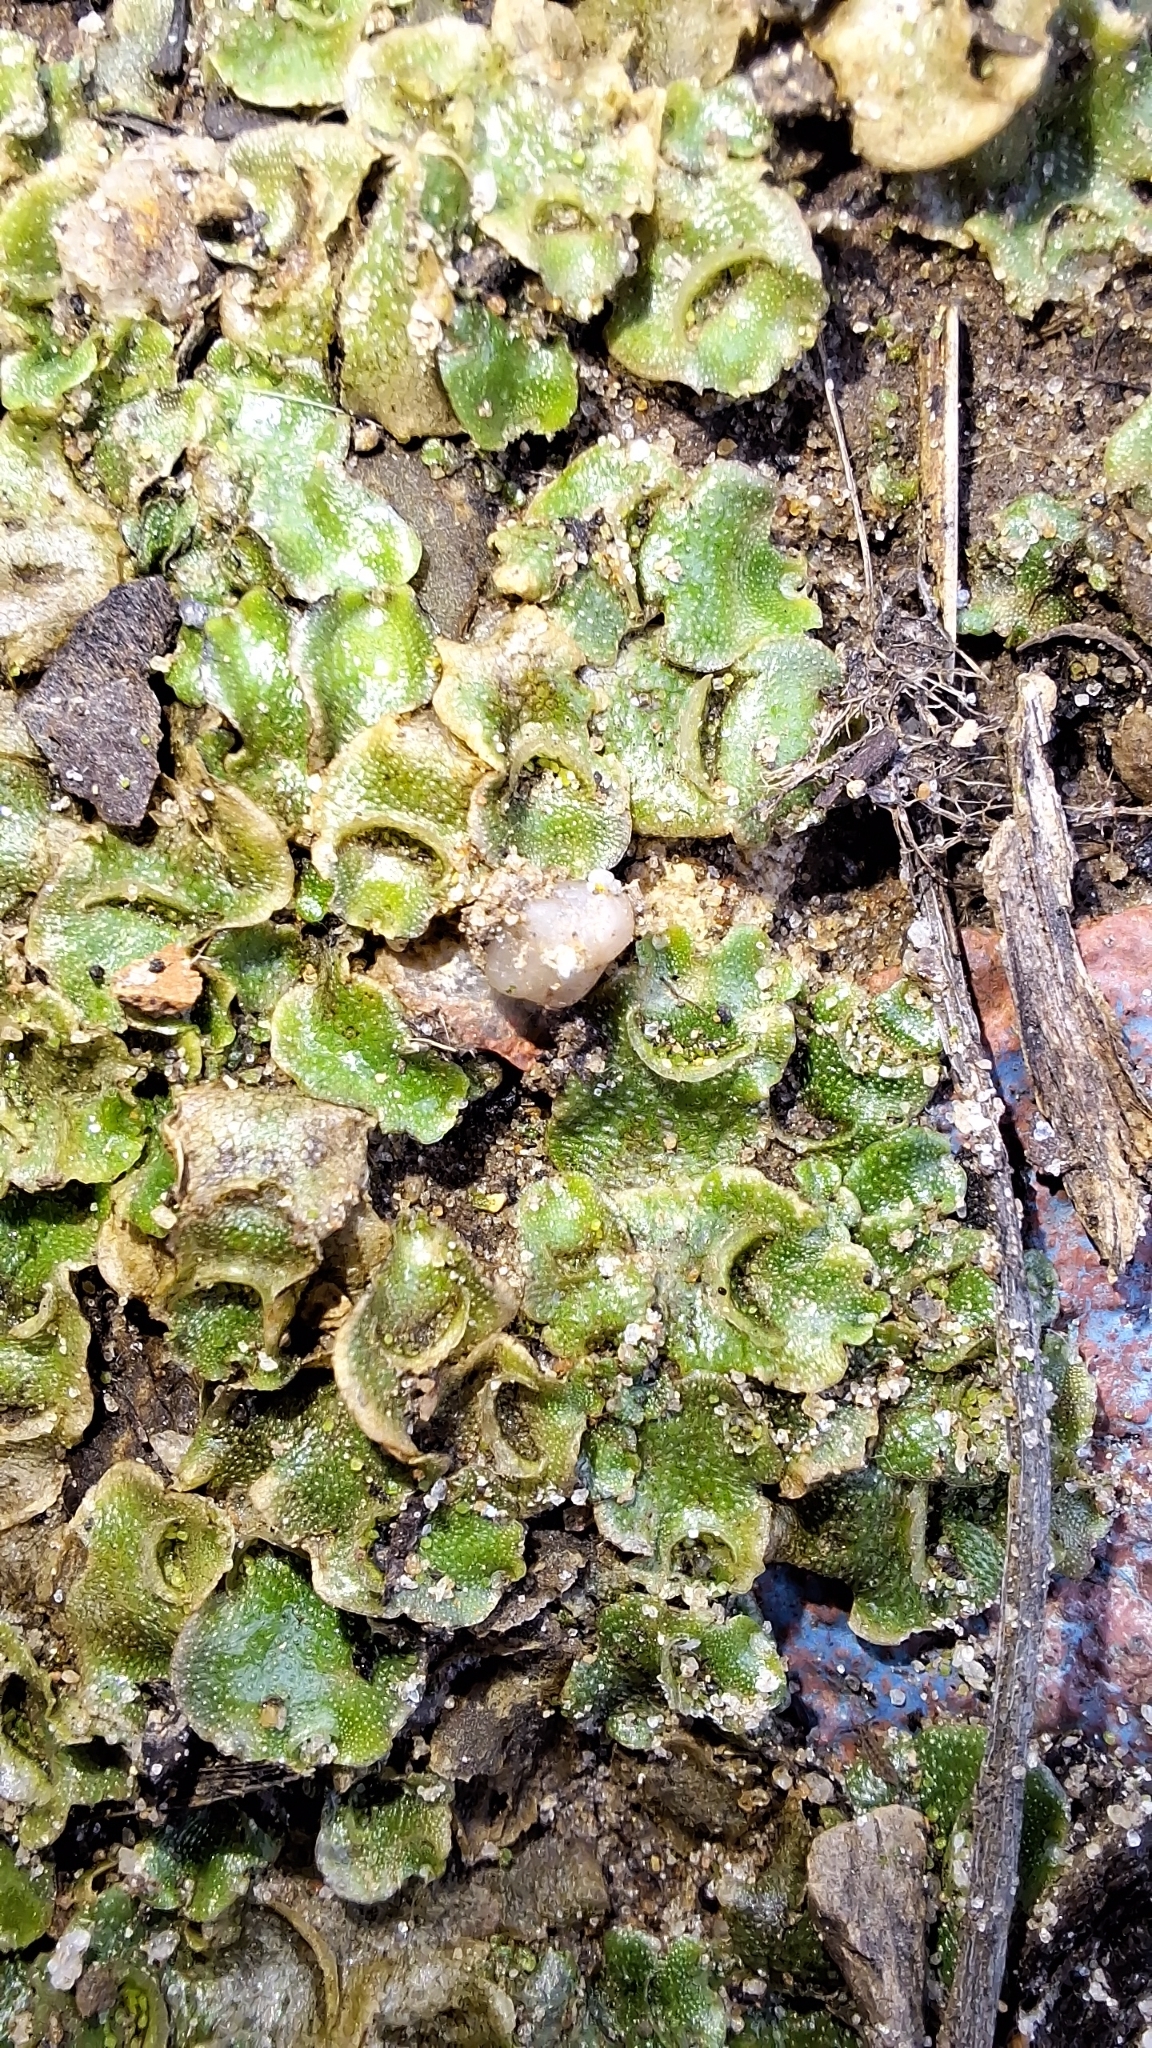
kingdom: Plantae
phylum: Marchantiophyta
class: Marchantiopsida
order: Lunulariales
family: Lunulariaceae
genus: Lunularia
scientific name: Lunularia cruciata
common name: Crescent-cup liverwort
